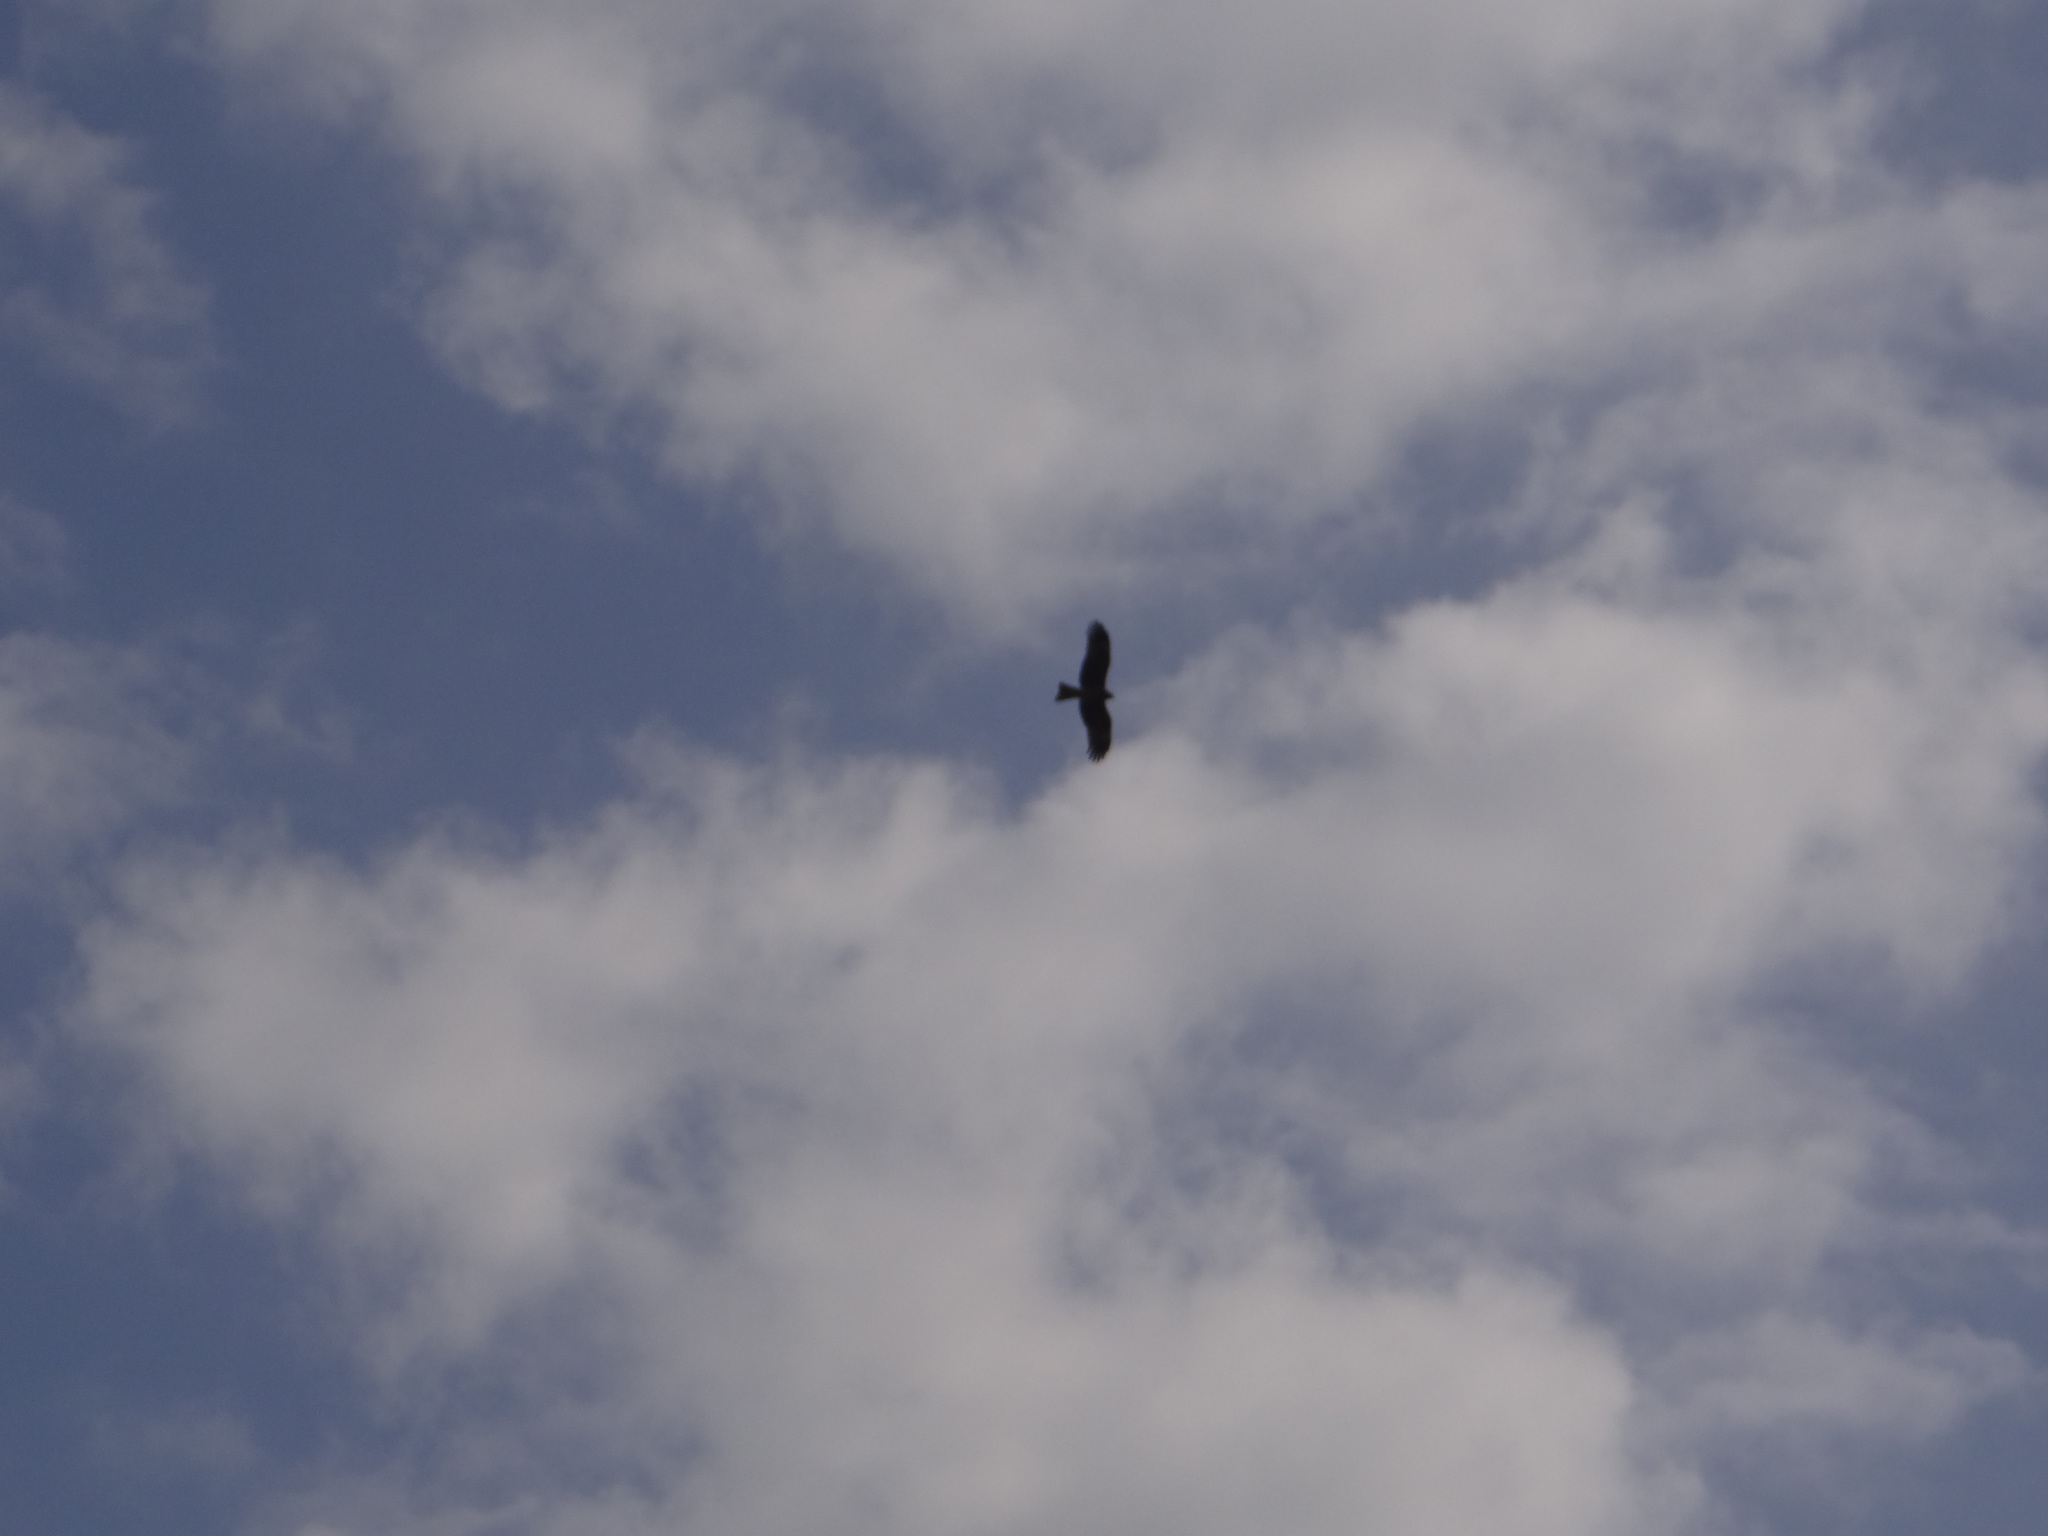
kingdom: Animalia
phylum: Chordata
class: Aves
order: Accipitriformes
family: Accipitridae
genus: Milvus
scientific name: Milvus migrans
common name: Black kite
